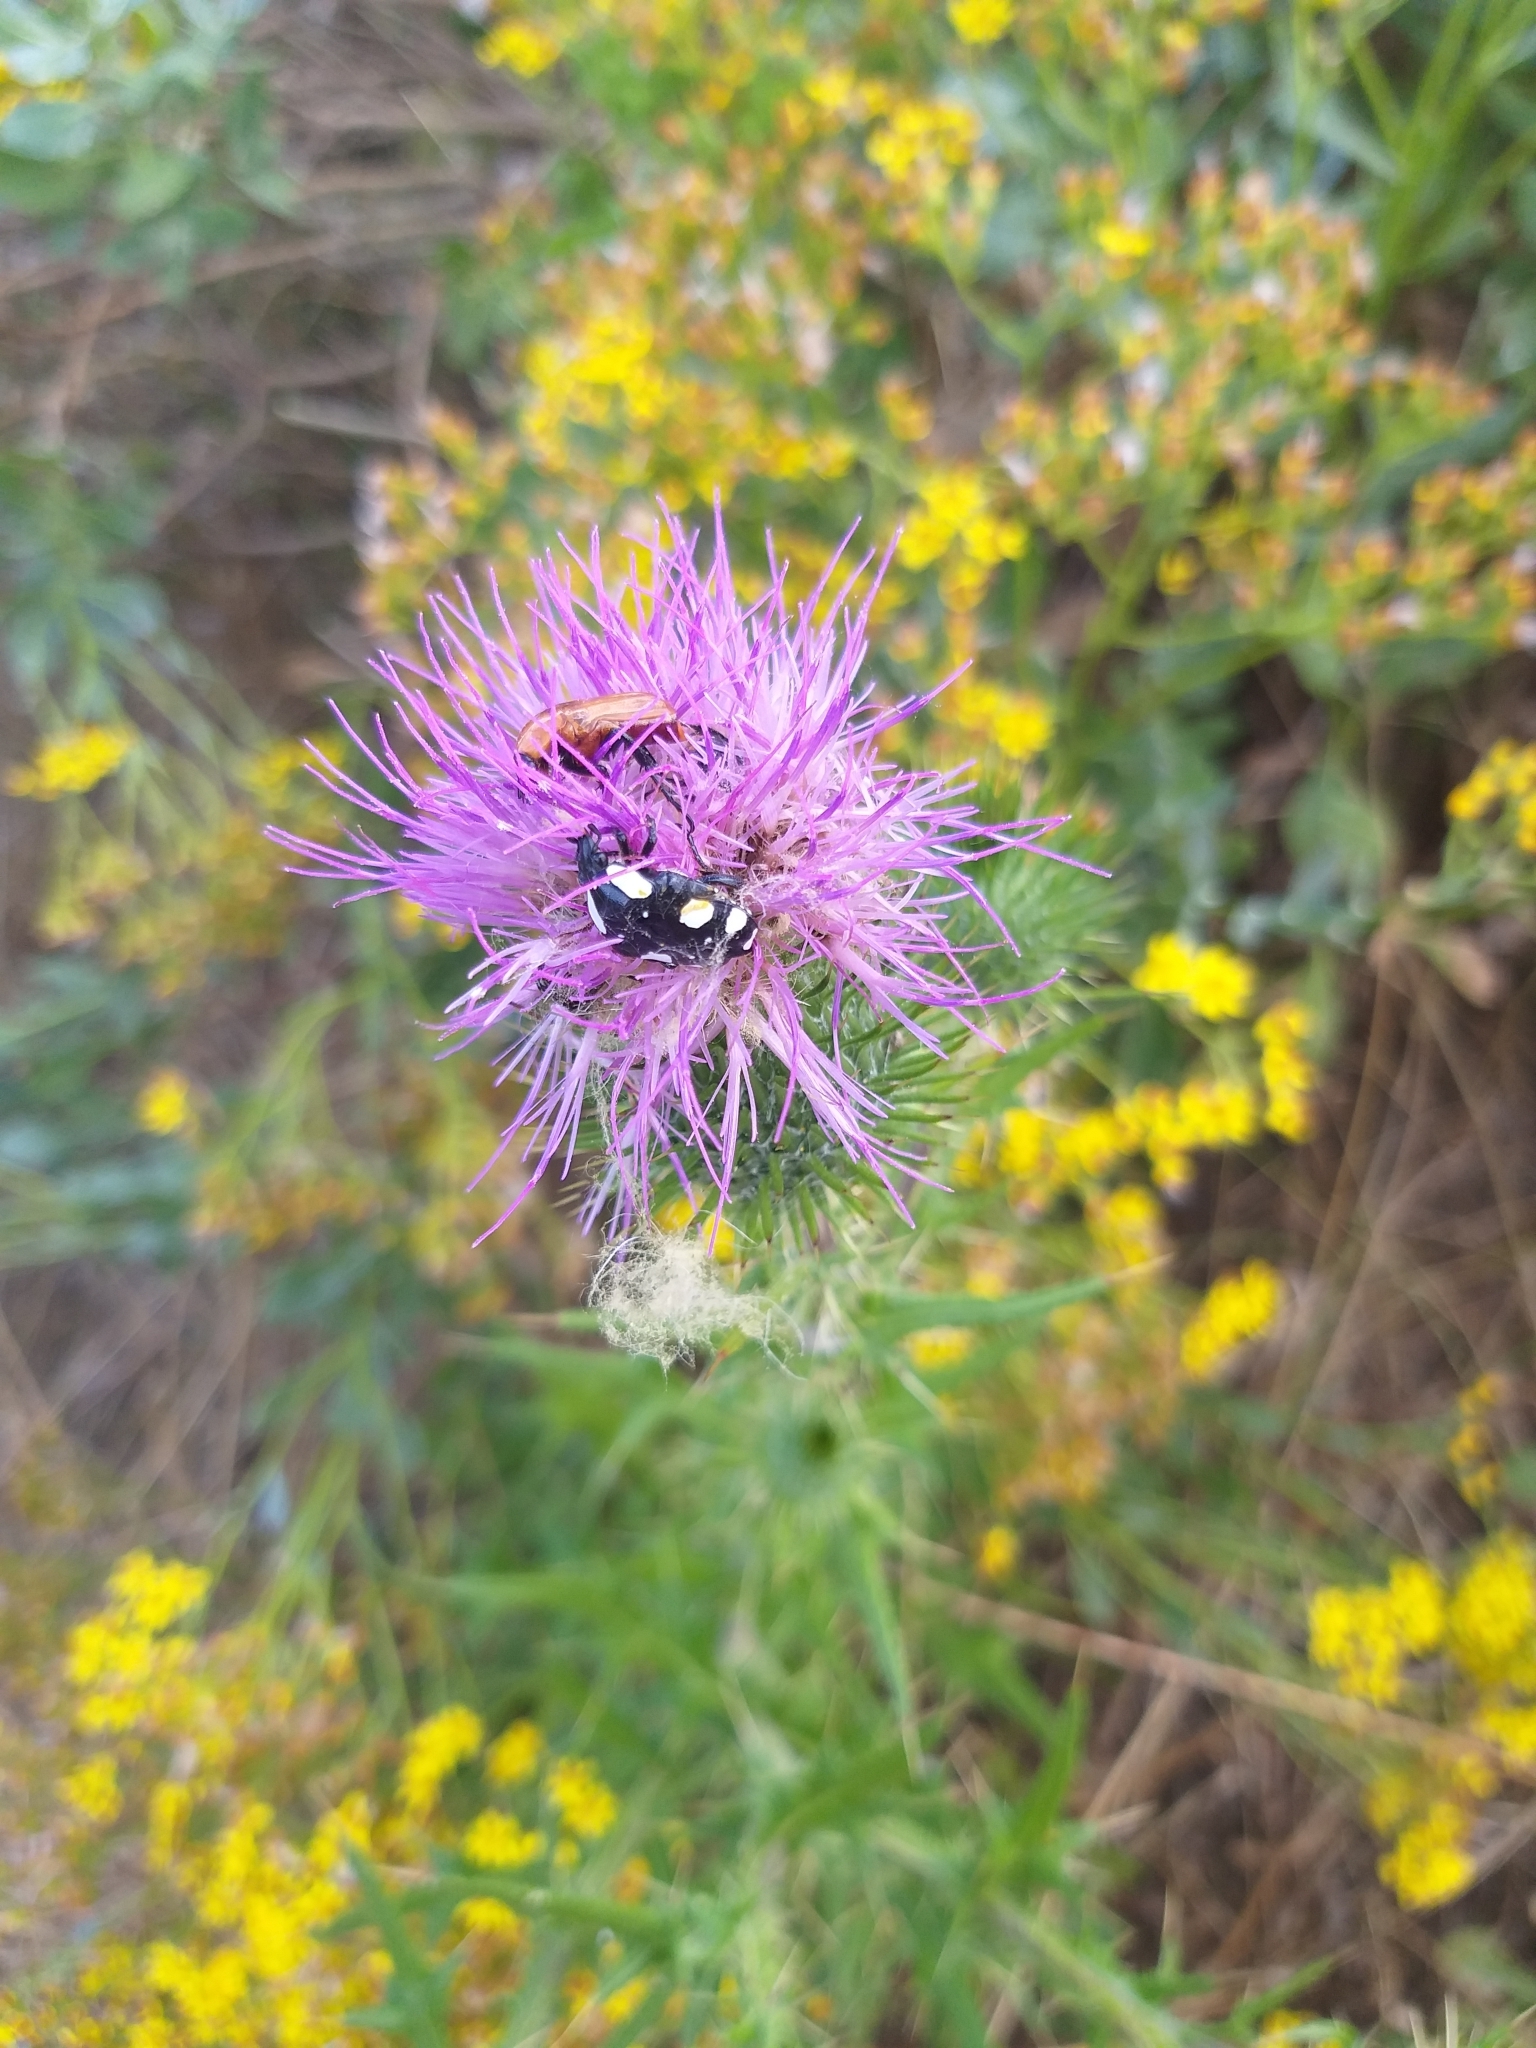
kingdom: Animalia
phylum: Arthropoda
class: Insecta
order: Coleoptera
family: Scarabaeidae
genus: Mausoleopsis
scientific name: Mausoleopsis amabilis
